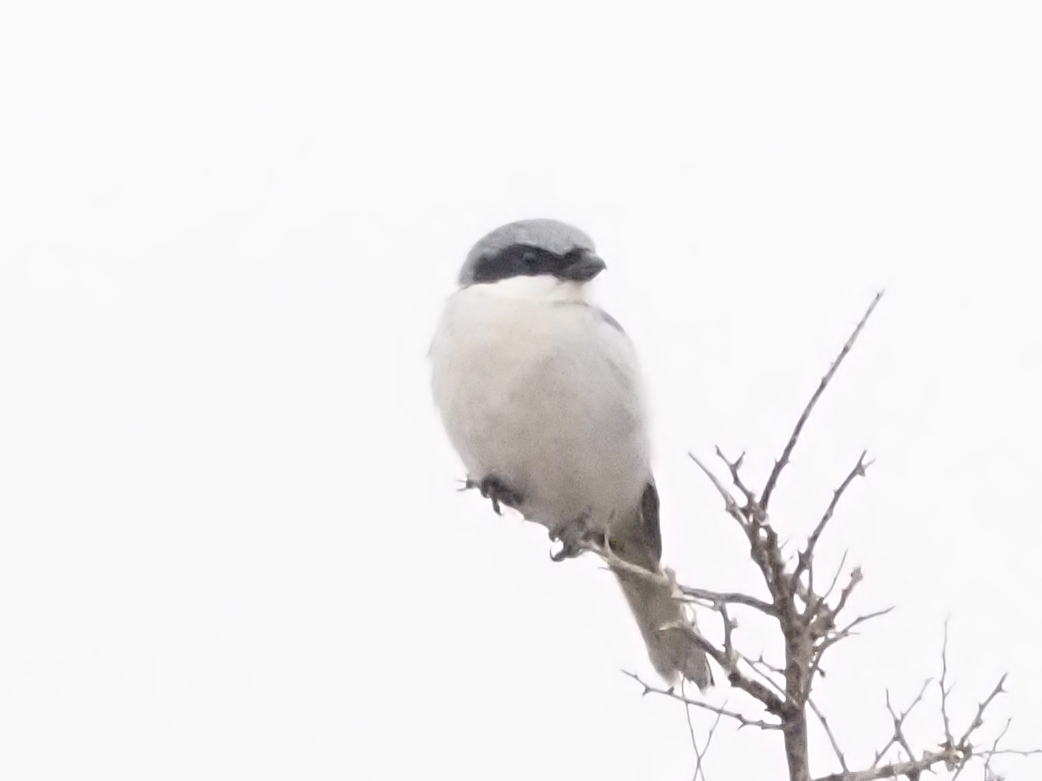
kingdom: Animalia
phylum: Chordata
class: Aves
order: Passeriformes
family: Laniidae
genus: Lanius
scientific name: Lanius ludovicianus
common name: Loggerhead shrike
